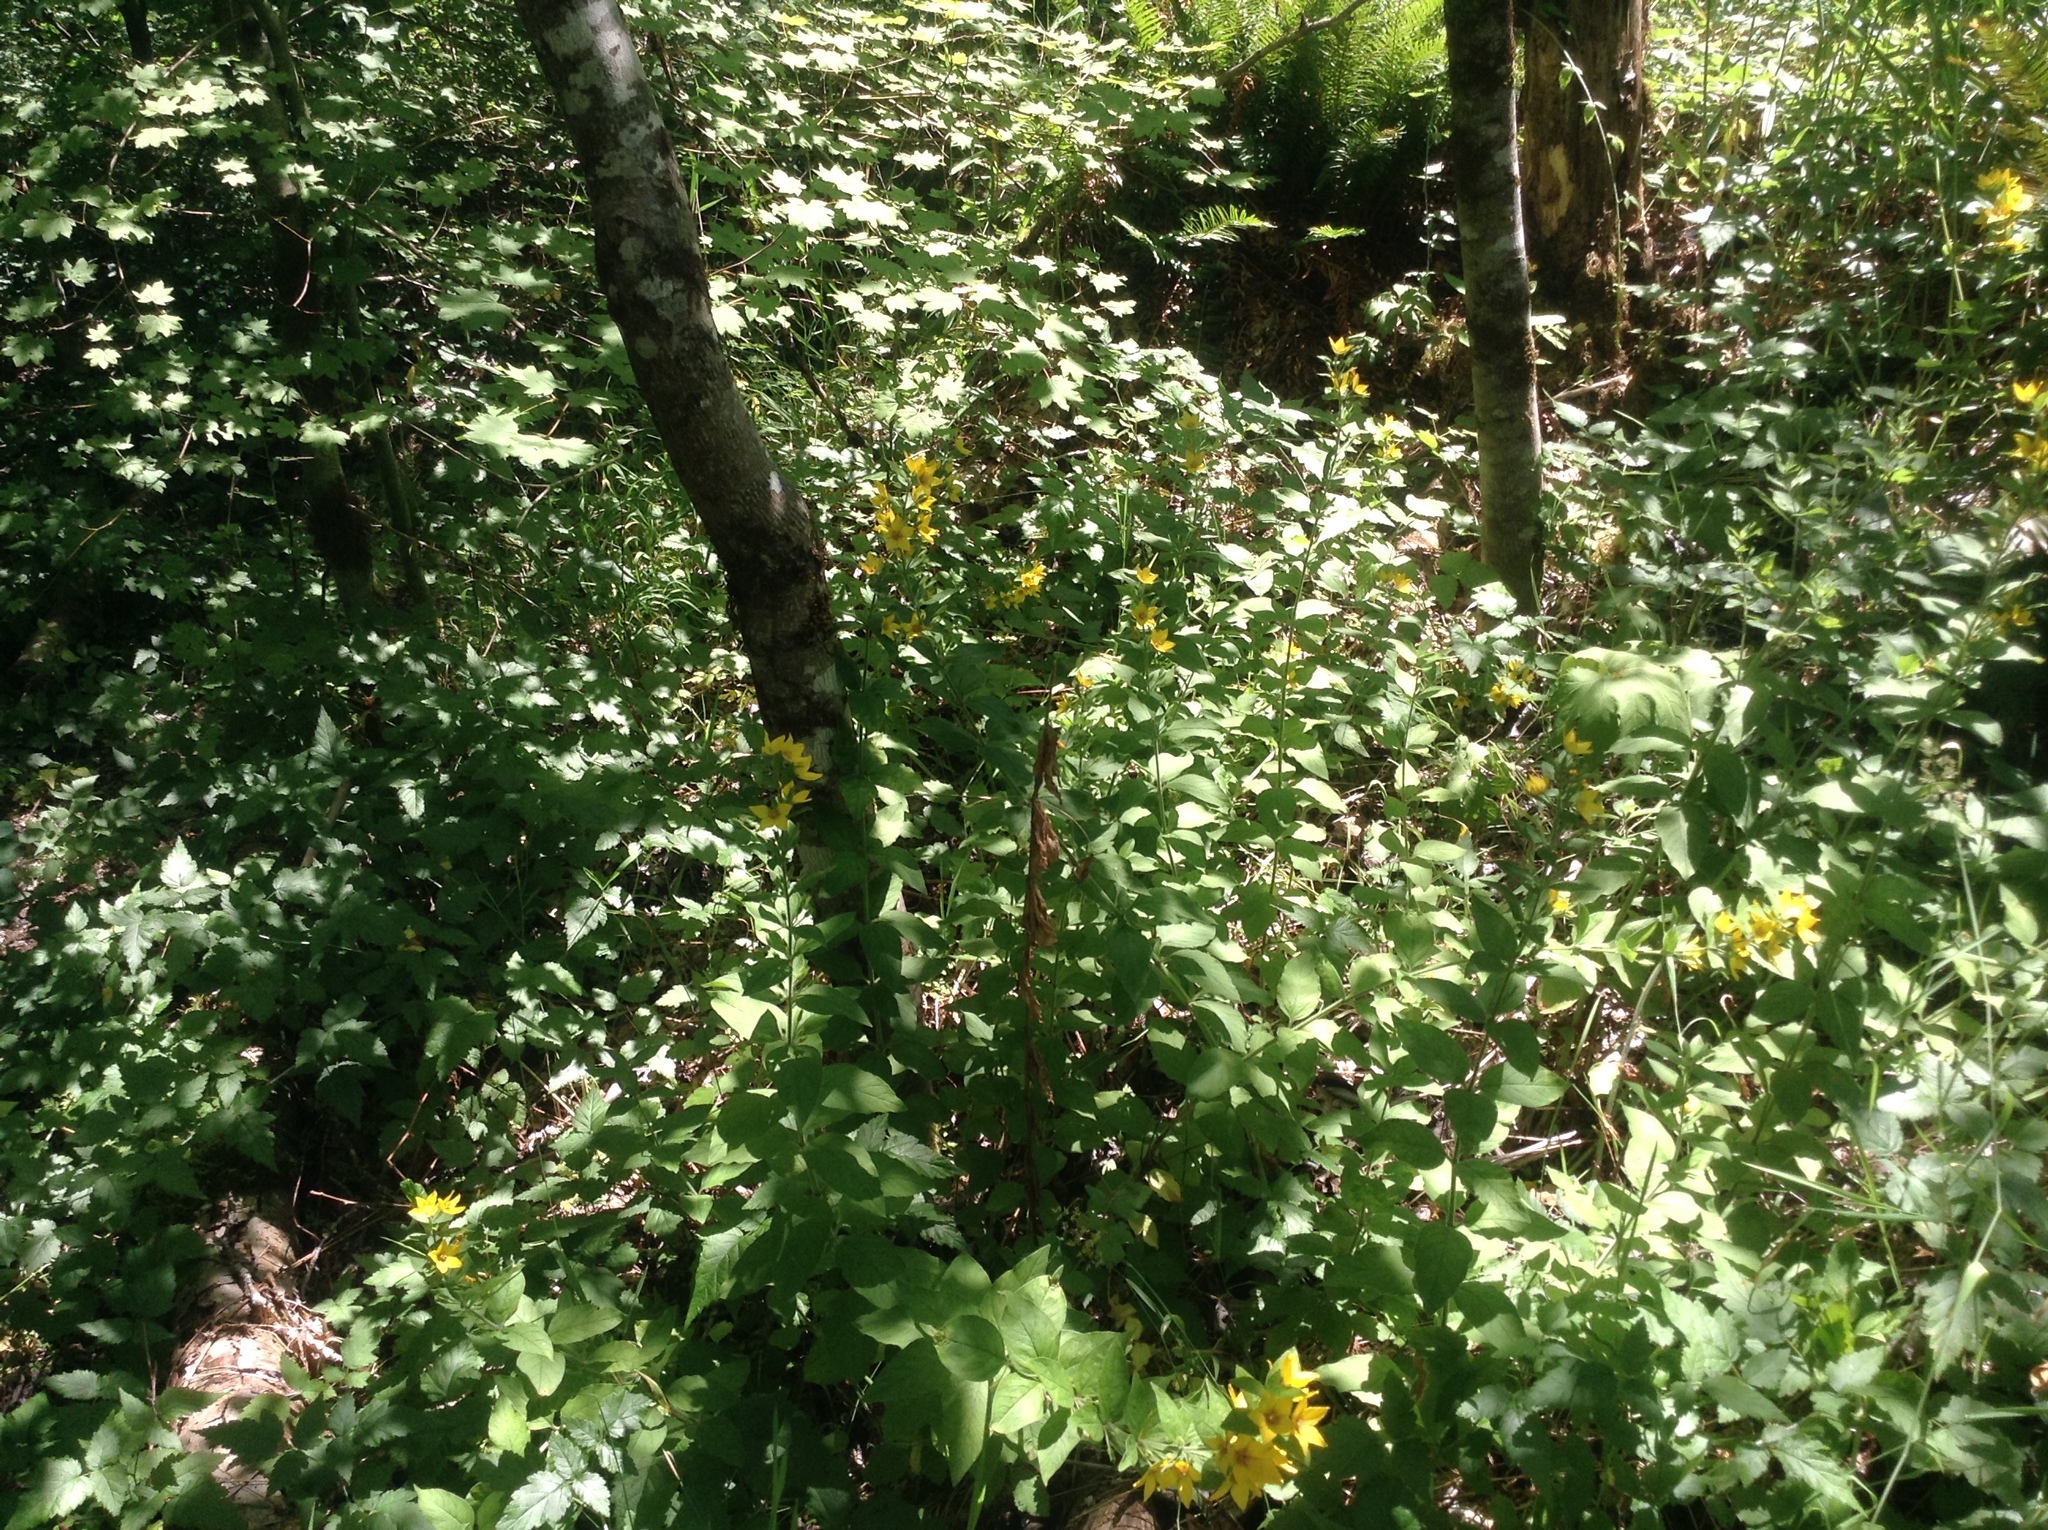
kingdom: Plantae
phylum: Tracheophyta
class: Magnoliopsida
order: Ericales
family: Primulaceae
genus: Lysimachia
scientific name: Lysimachia punctata
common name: Dotted loosestrife
